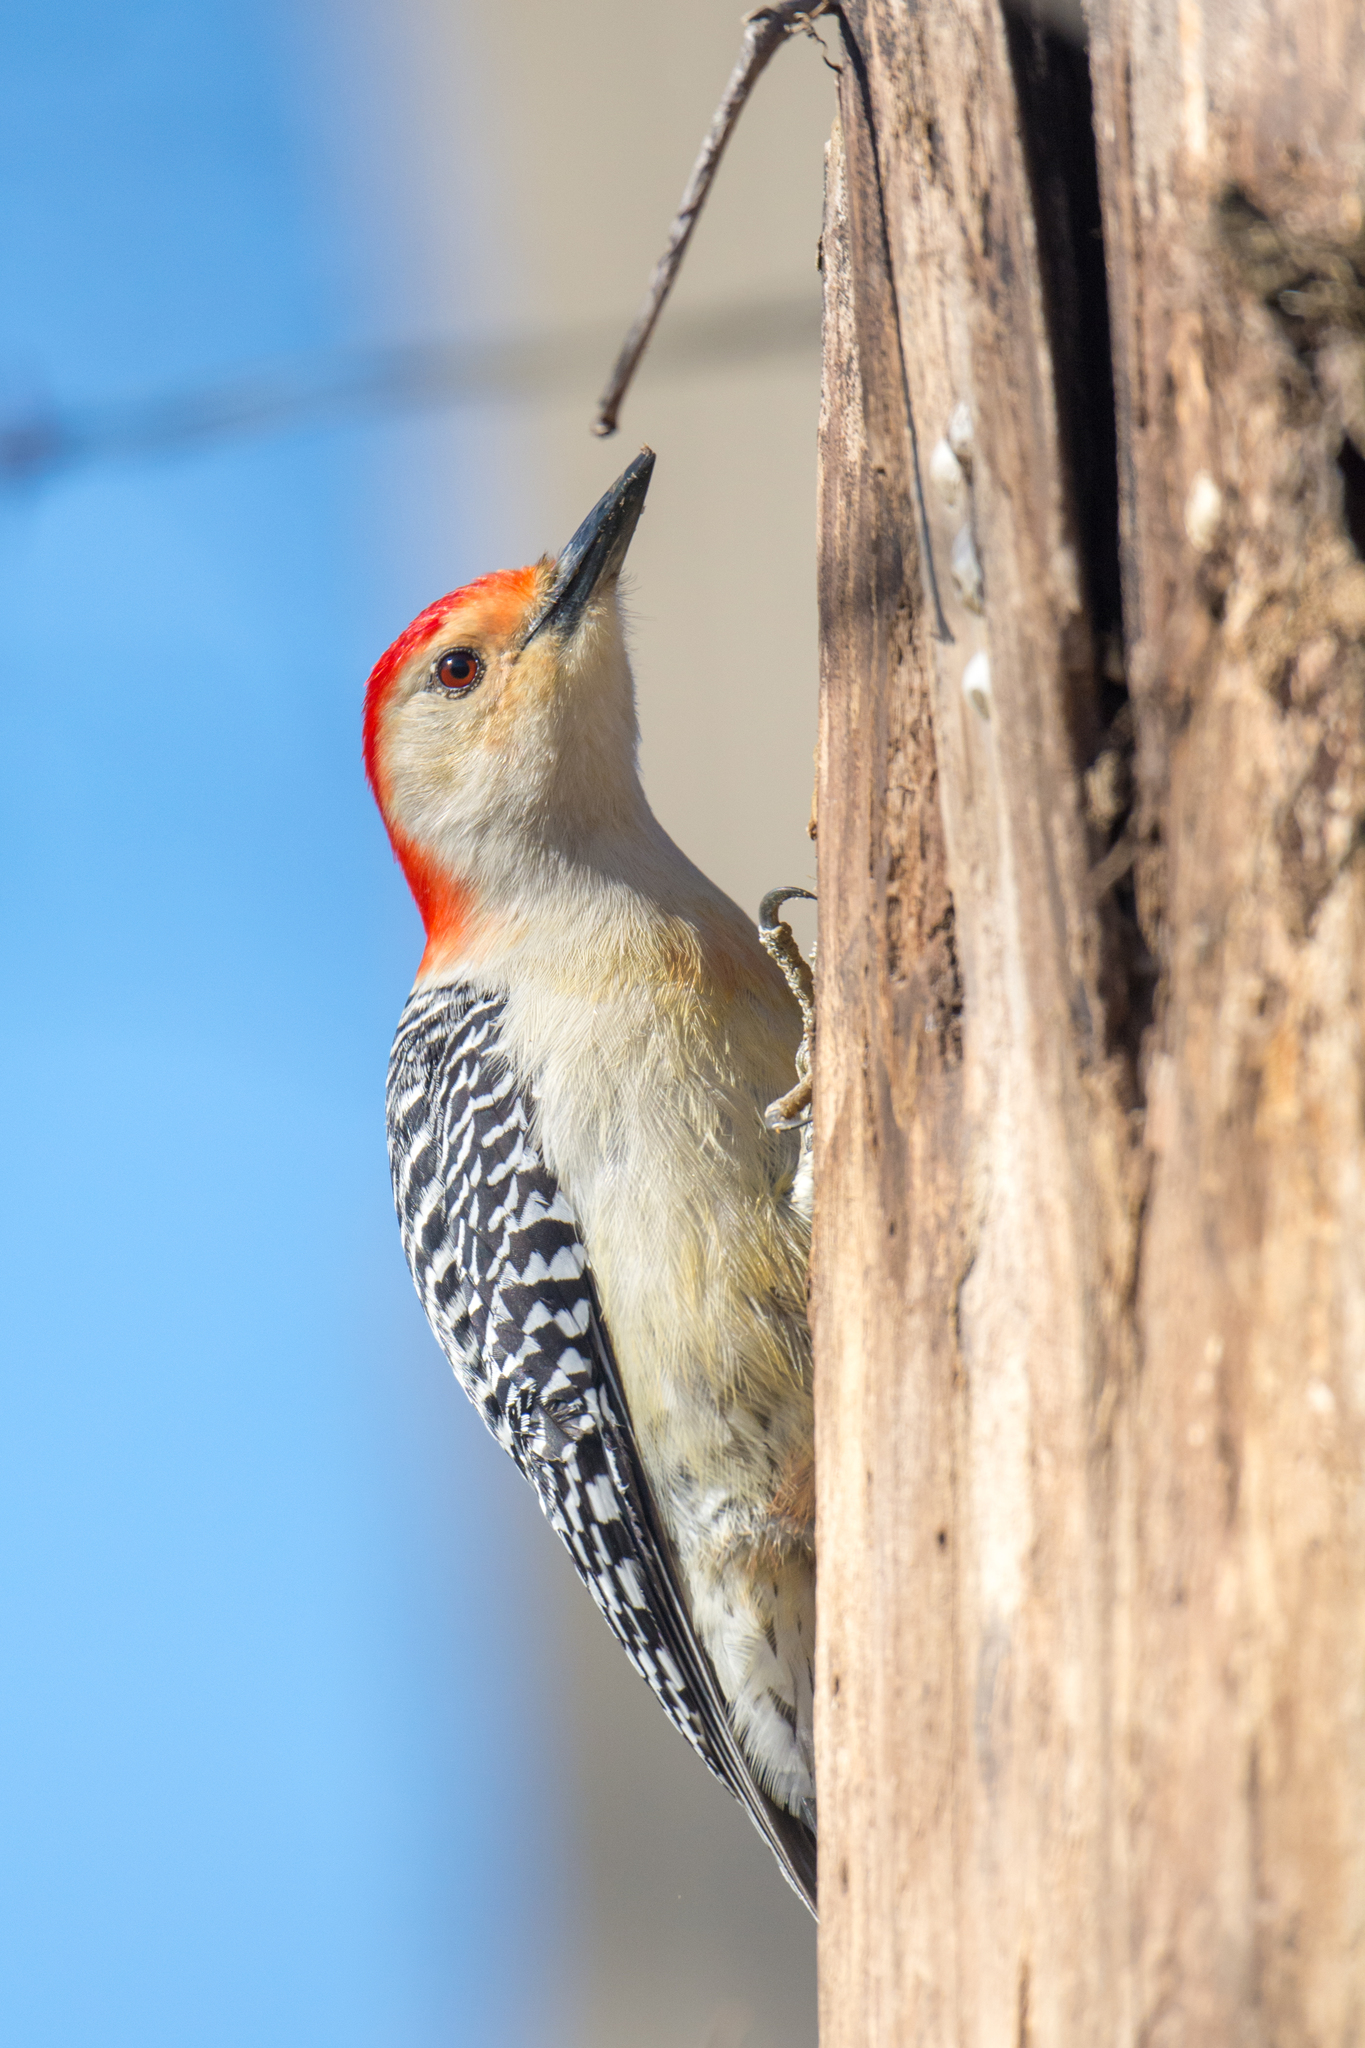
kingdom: Animalia
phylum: Chordata
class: Aves
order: Piciformes
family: Picidae
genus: Melanerpes
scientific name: Melanerpes carolinus
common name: Red-bellied woodpecker
